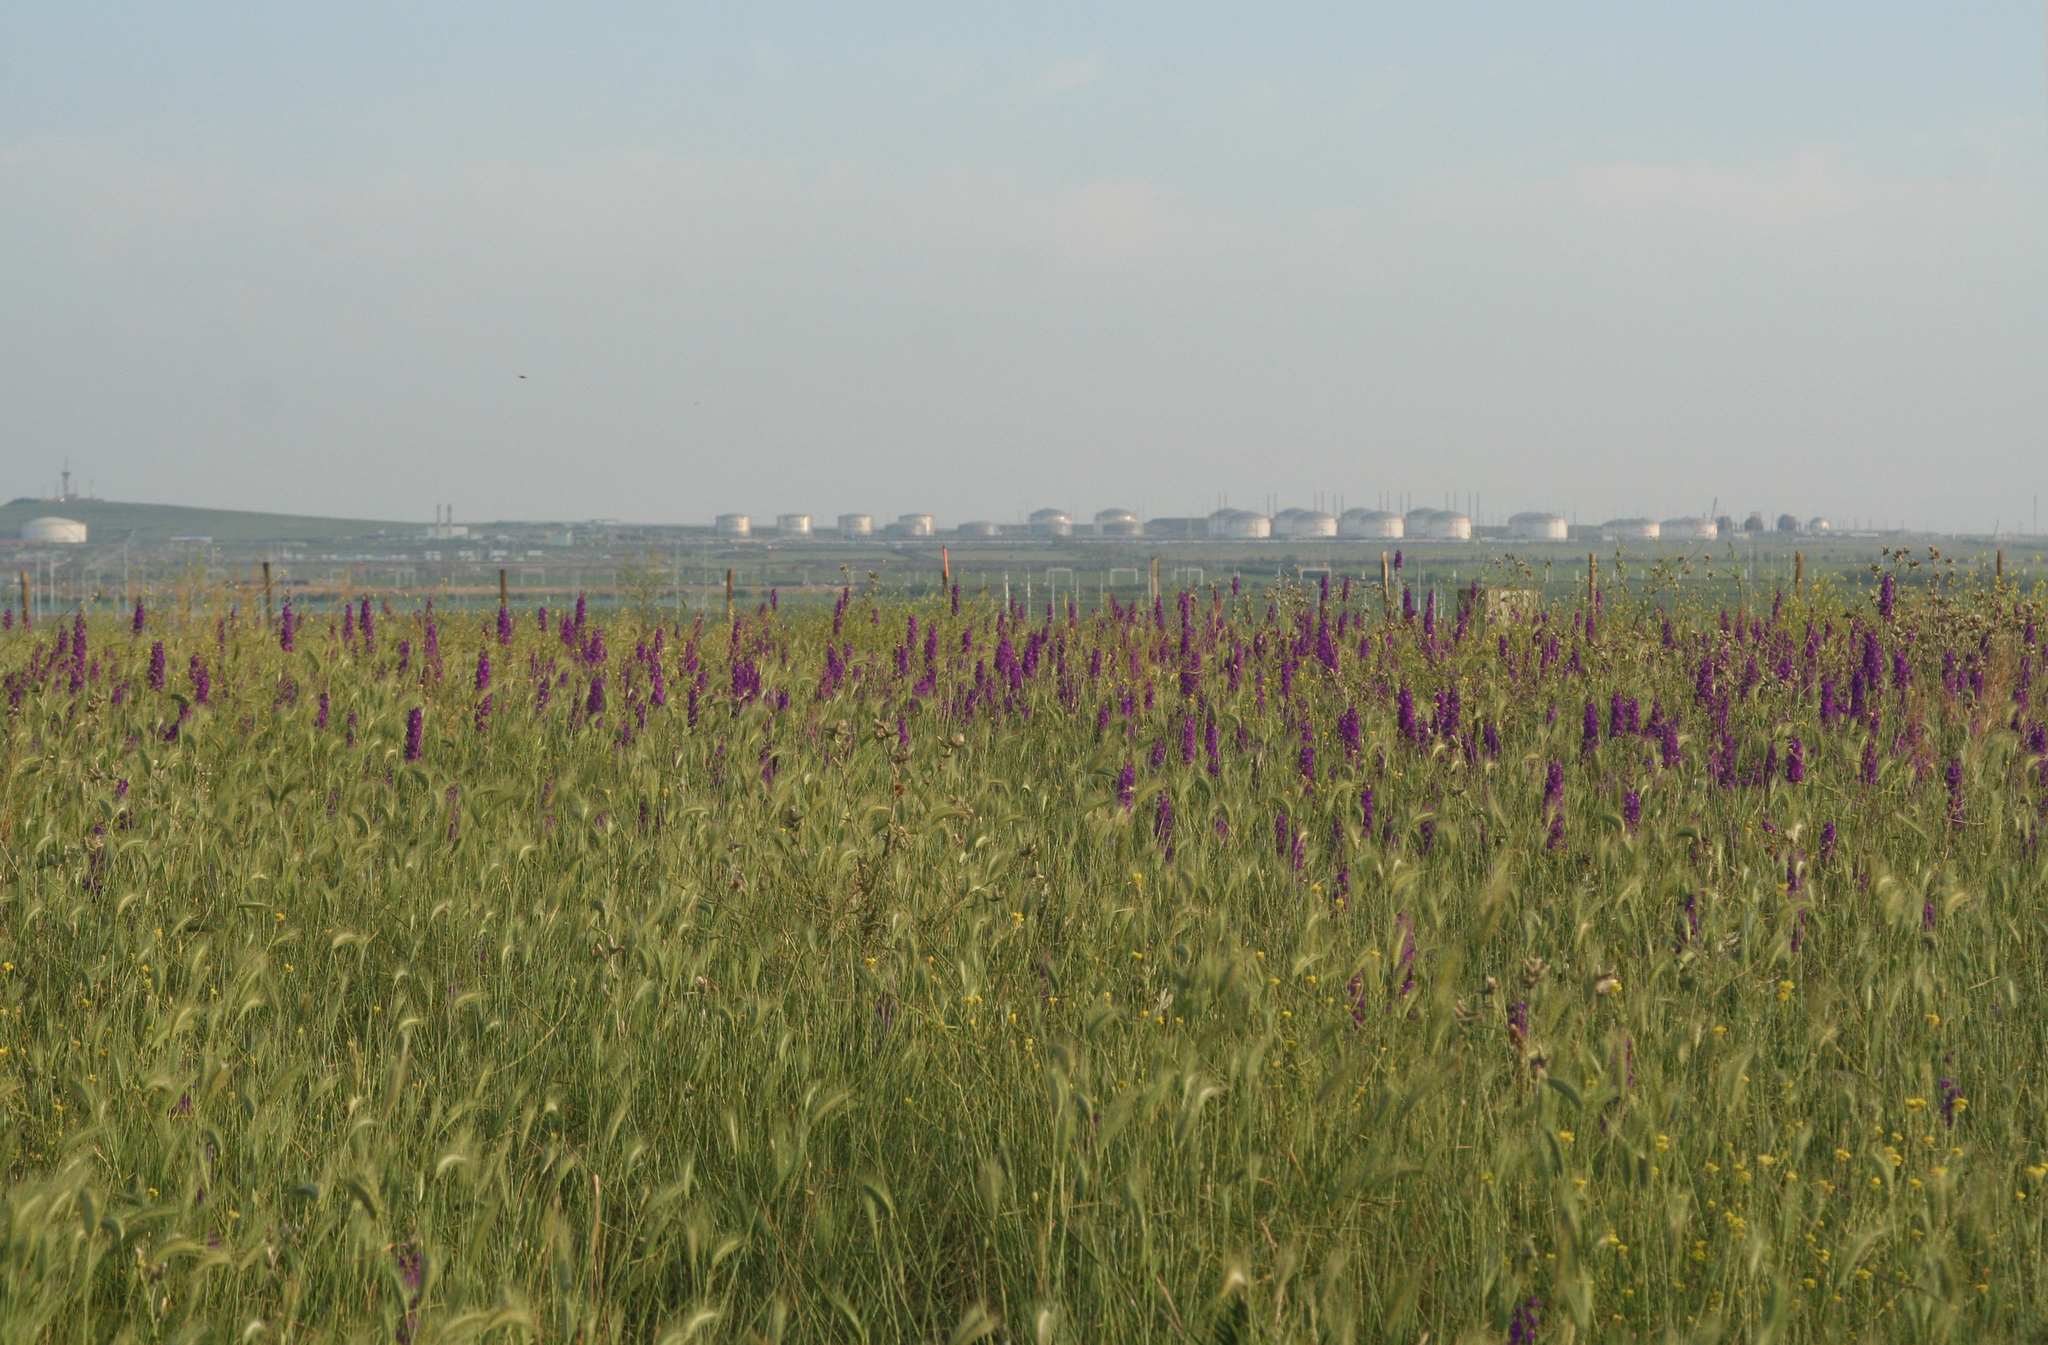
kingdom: Plantae
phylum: Tracheophyta
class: Magnoliopsida
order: Ranunculales
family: Ranunculaceae
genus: Delphinium
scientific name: Delphinium ajacis
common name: Doubtful knight's-spur
